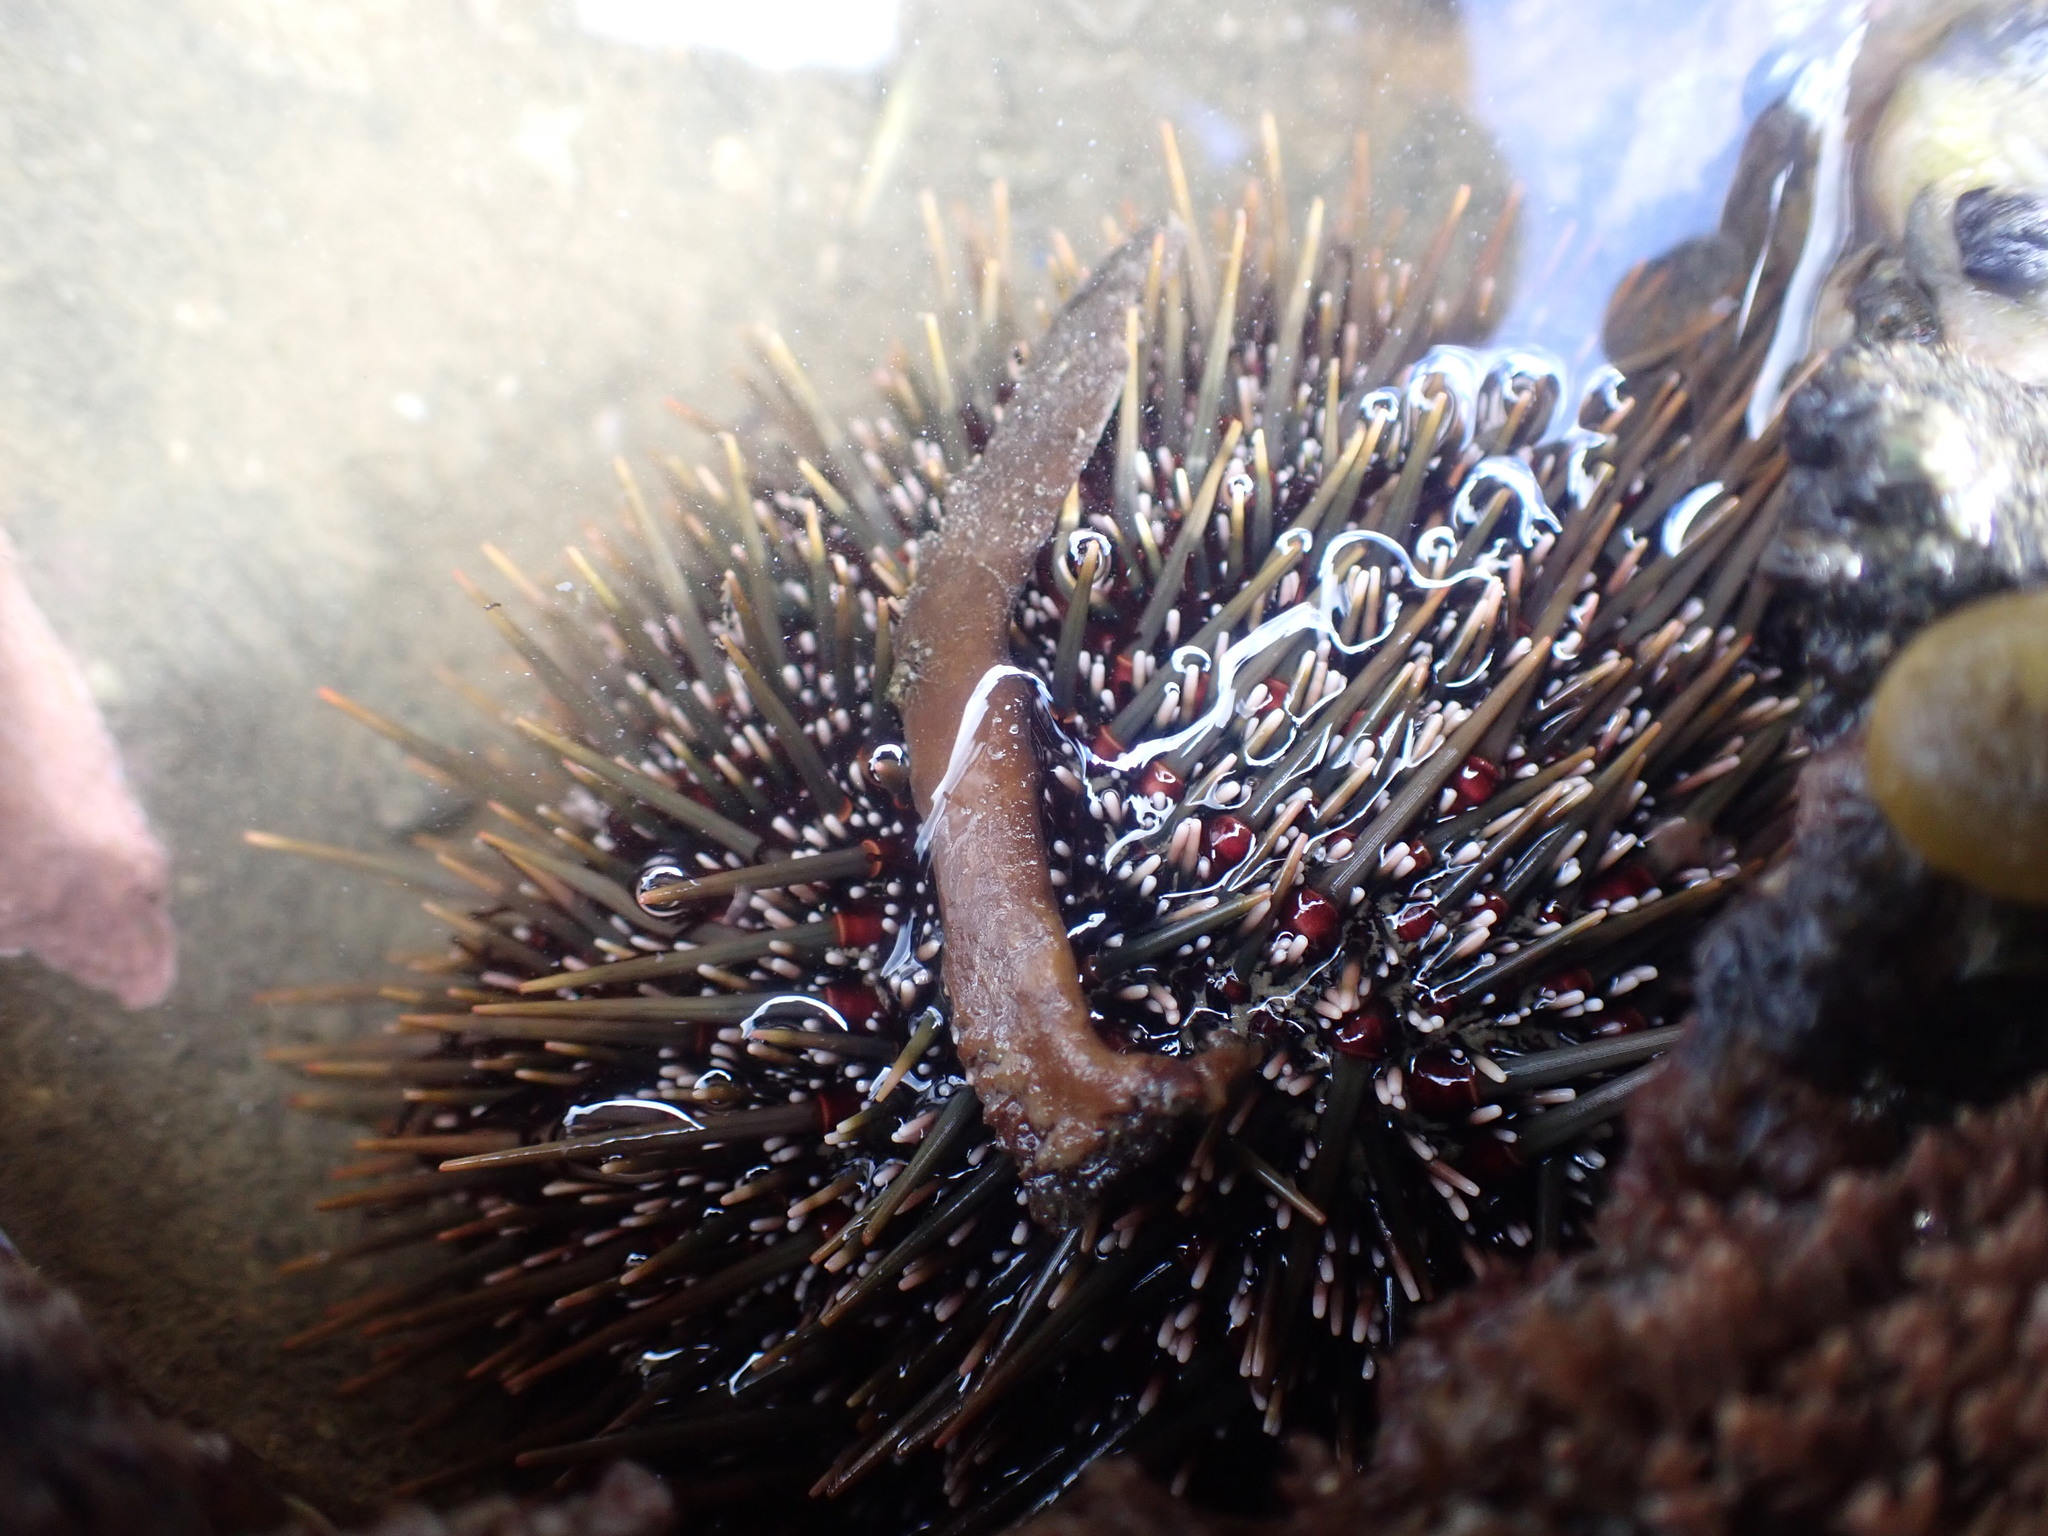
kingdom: Animalia
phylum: Echinodermata
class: Echinoidea
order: Camarodonta
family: Echinometridae
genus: Evechinus
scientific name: Evechinus chloroticus
